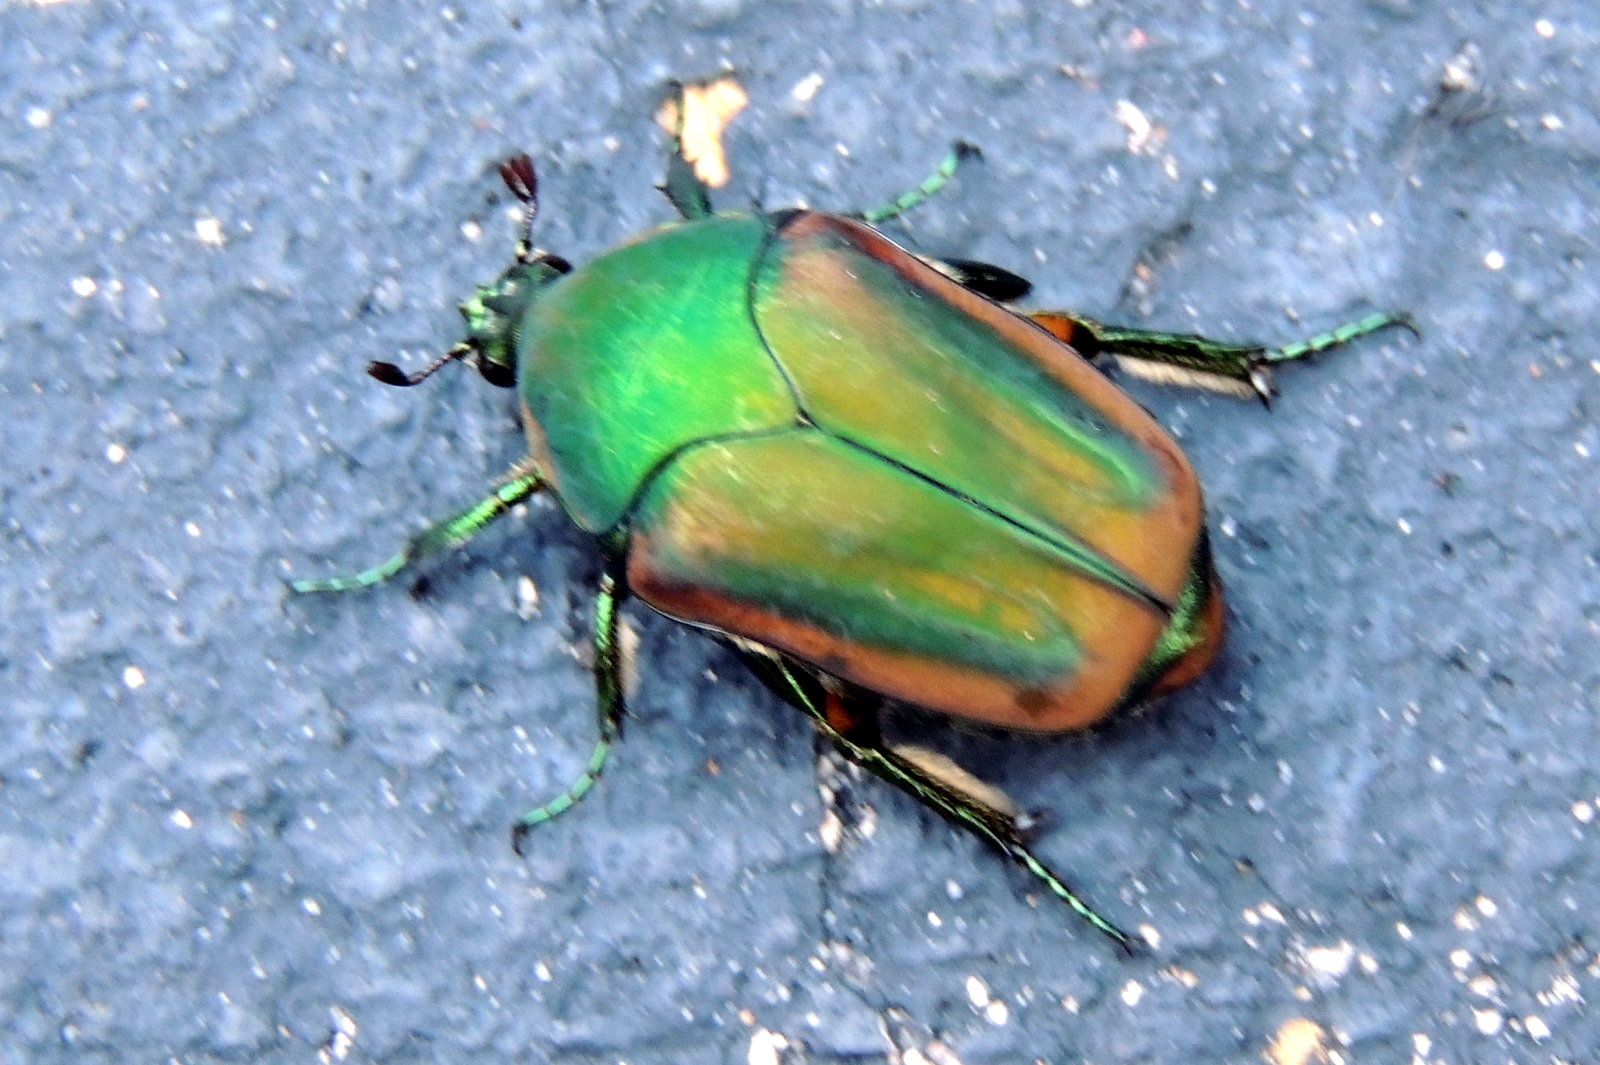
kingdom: Animalia
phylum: Arthropoda
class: Insecta
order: Coleoptera
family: Scarabaeidae
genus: Cotinis
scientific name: Cotinis nitida
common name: Common green june beetle
